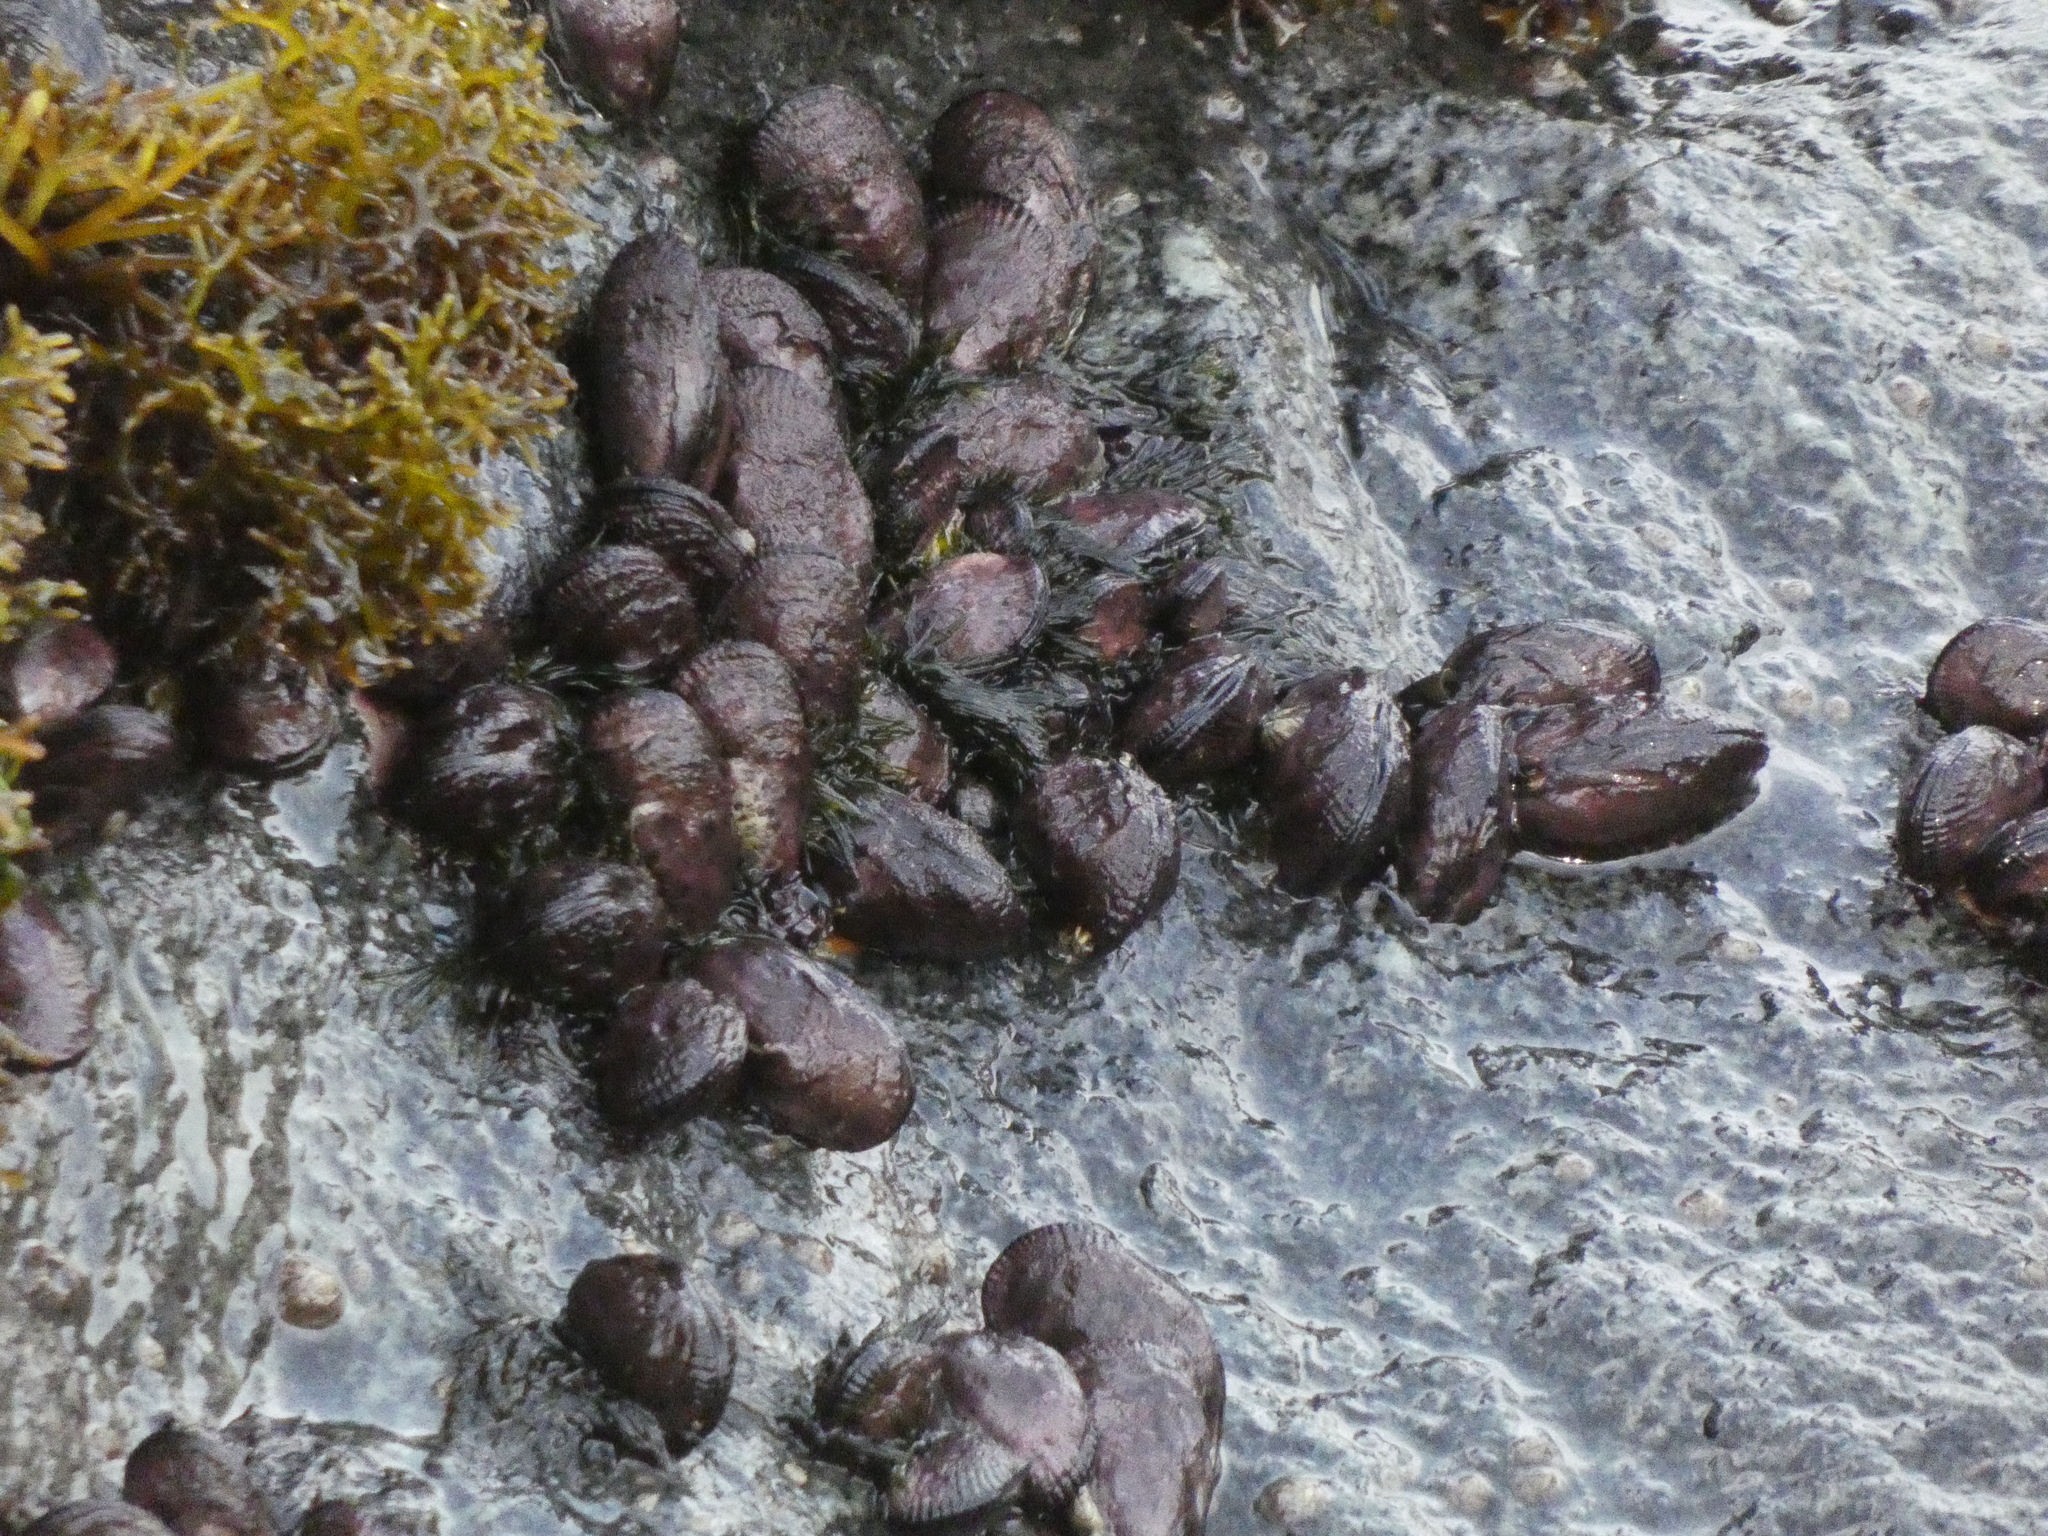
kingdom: Animalia
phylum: Mollusca
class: Bivalvia
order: Mytilida
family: Mytilidae
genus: Perumytilus
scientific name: Perumytilus purpuratus
